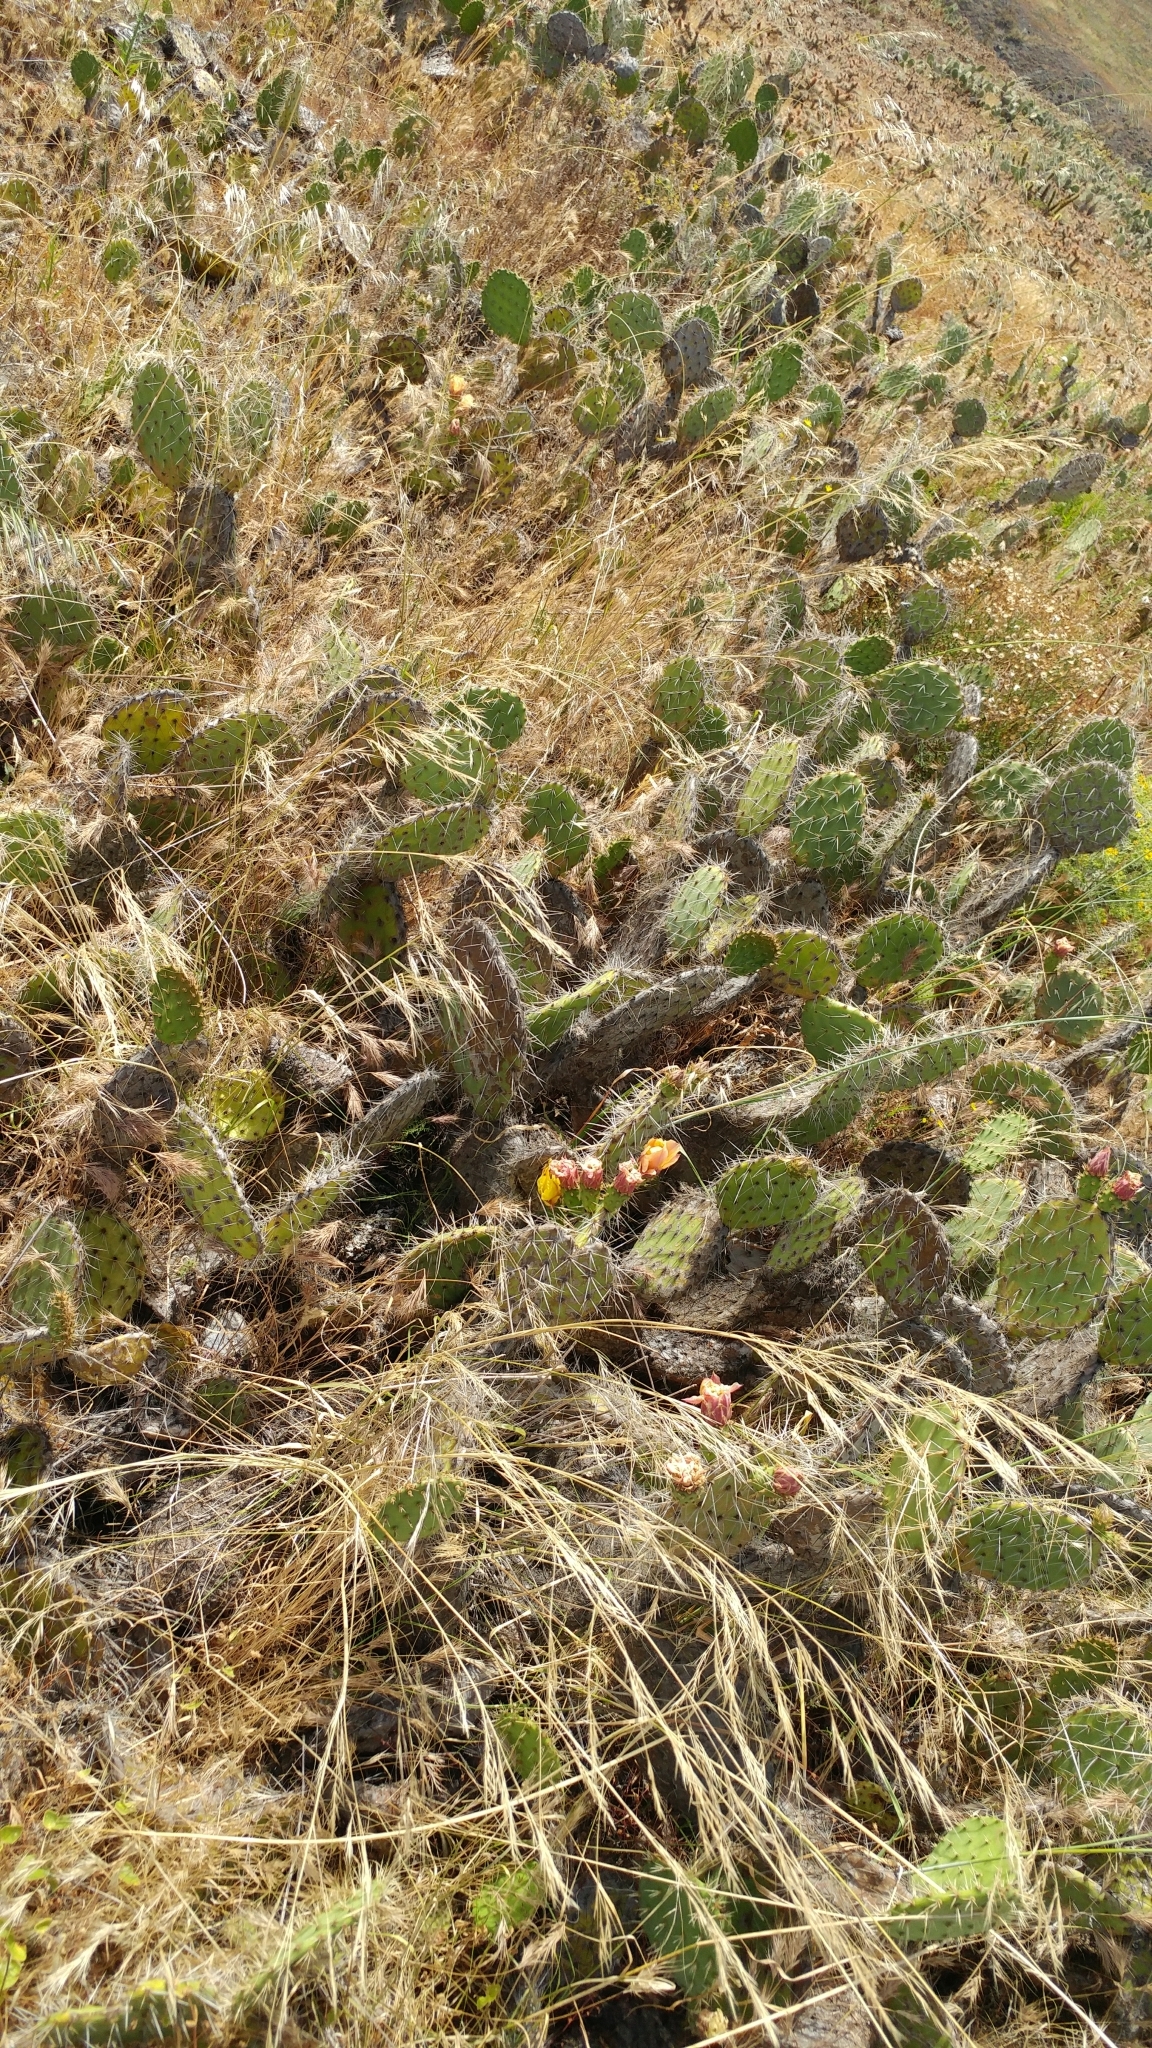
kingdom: Plantae
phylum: Tracheophyta
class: Magnoliopsida
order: Caryophyllales
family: Cactaceae
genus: Opuntia
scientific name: Opuntia littoralis
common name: Coastal prickly-pear
